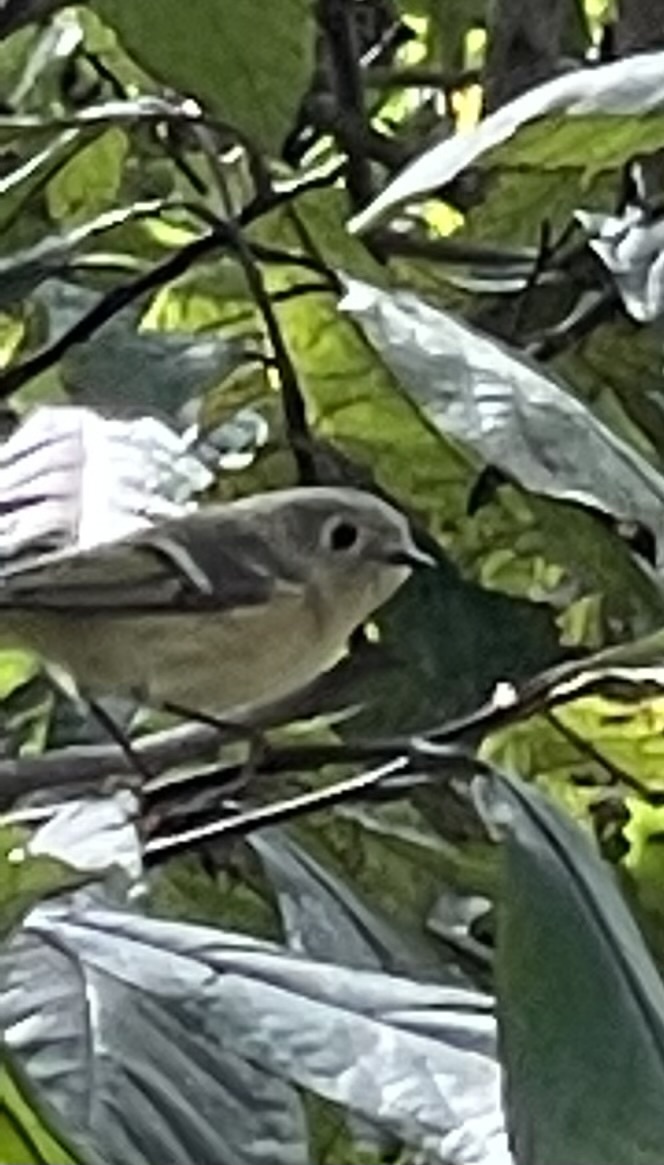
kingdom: Animalia
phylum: Chordata
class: Aves
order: Passeriformes
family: Regulidae
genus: Regulus
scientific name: Regulus calendula
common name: Ruby-crowned kinglet
